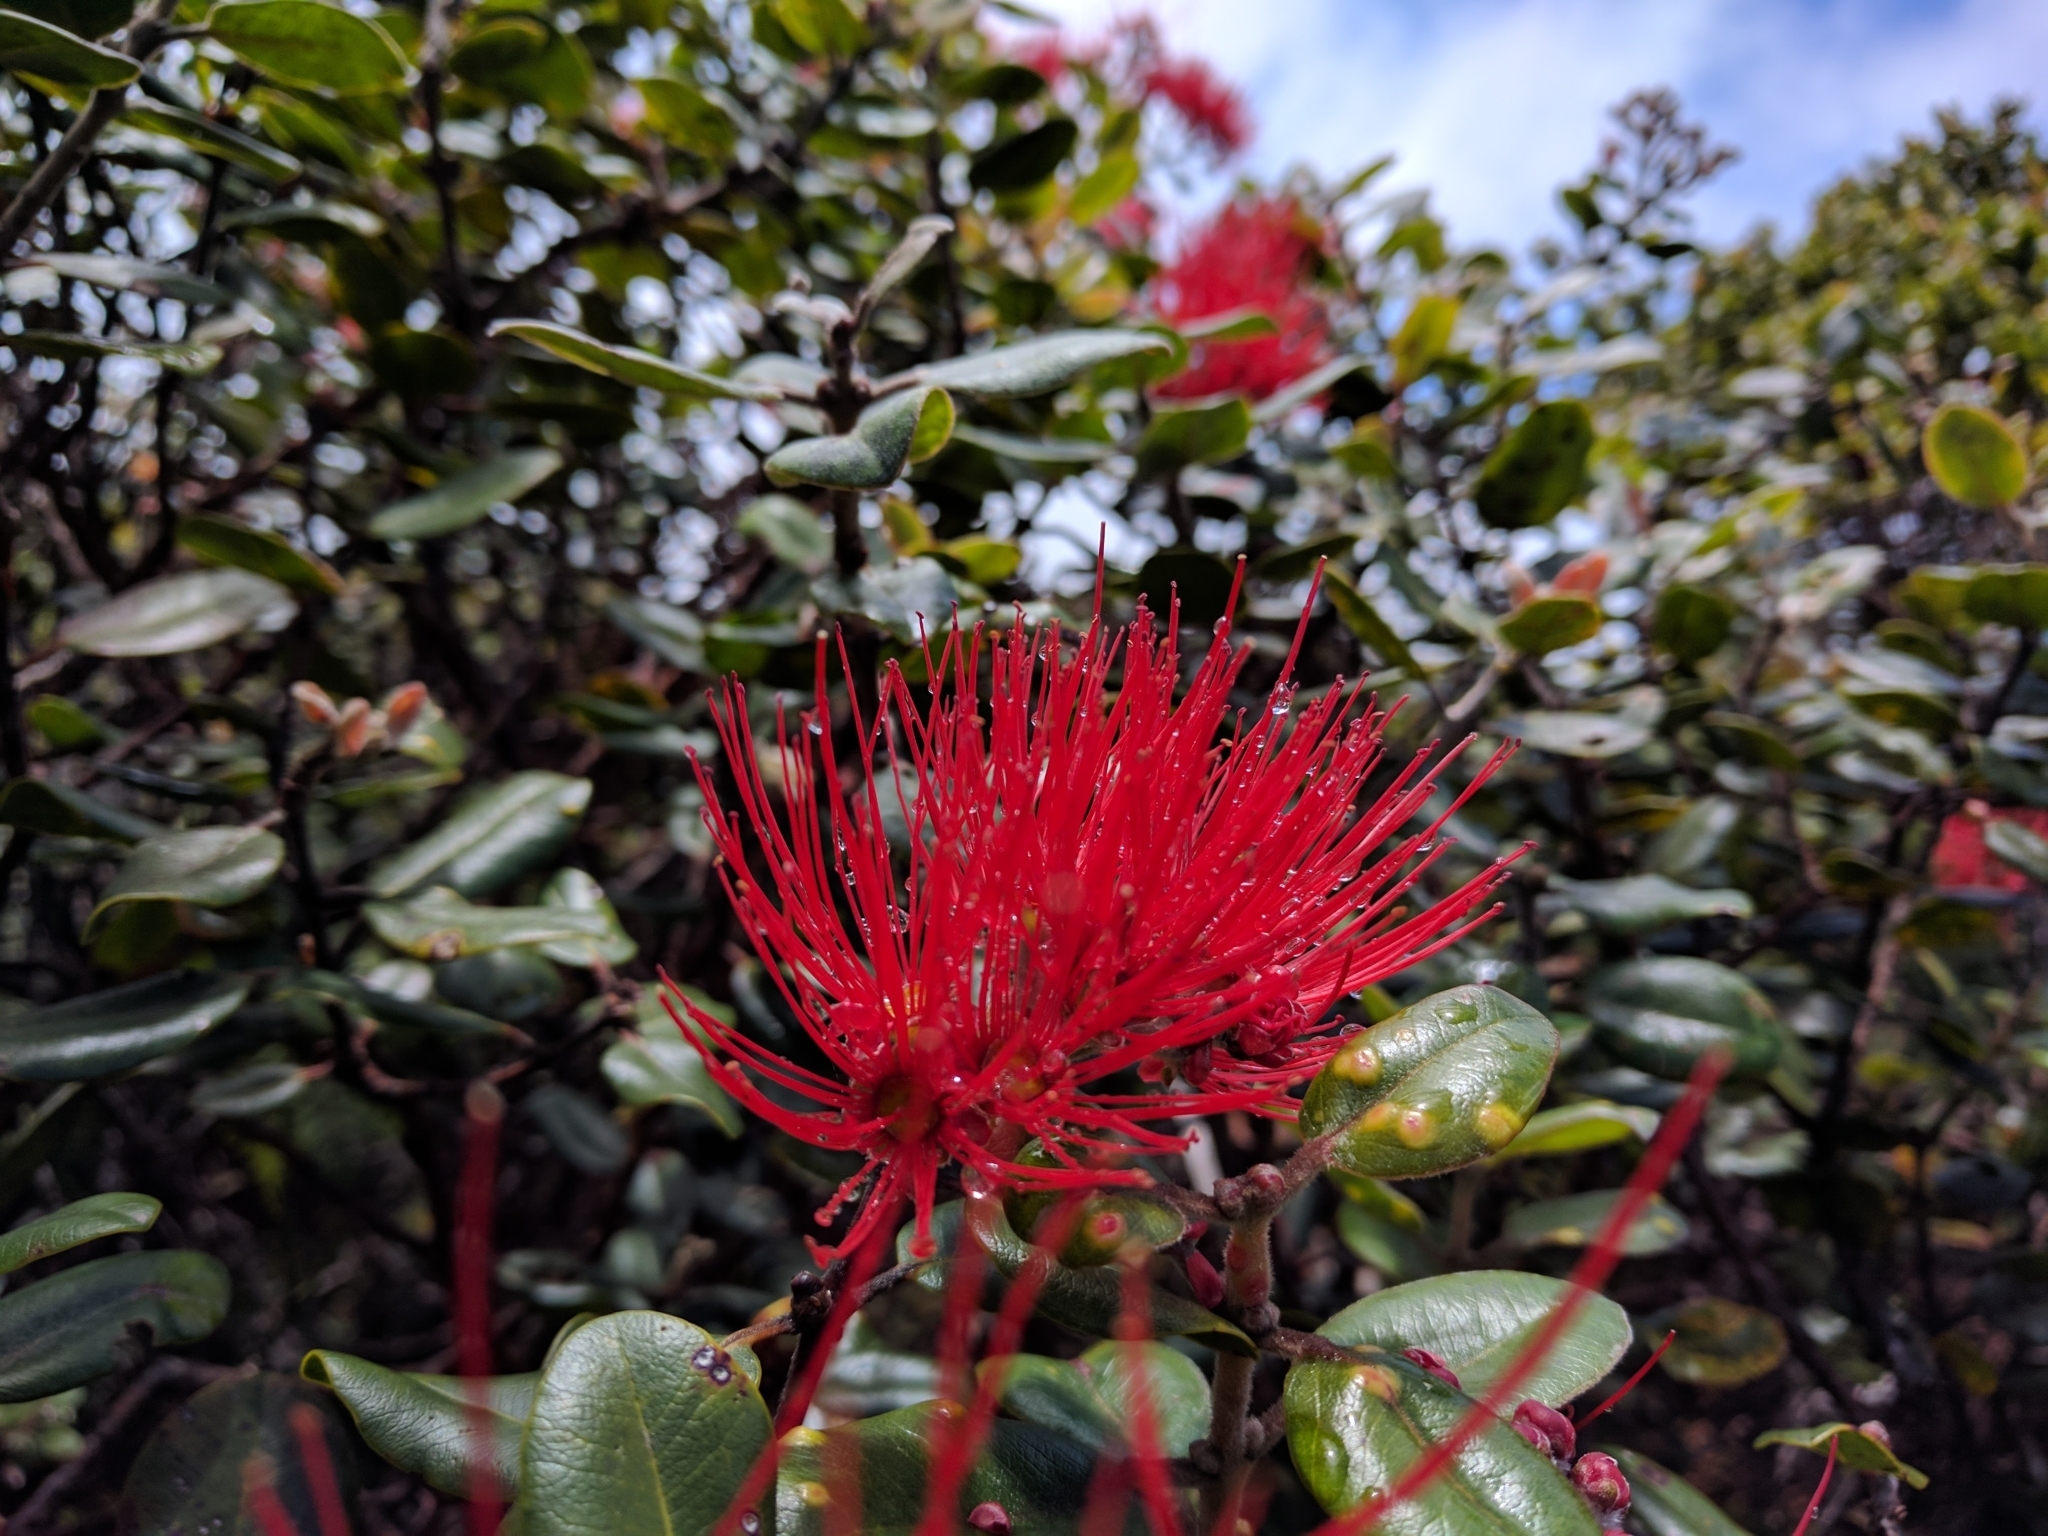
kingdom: Plantae
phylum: Tracheophyta
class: Magnoliopsida
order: Myrtales
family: Myrtaceae
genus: Metrosideros
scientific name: Metrosideros polymorpha
